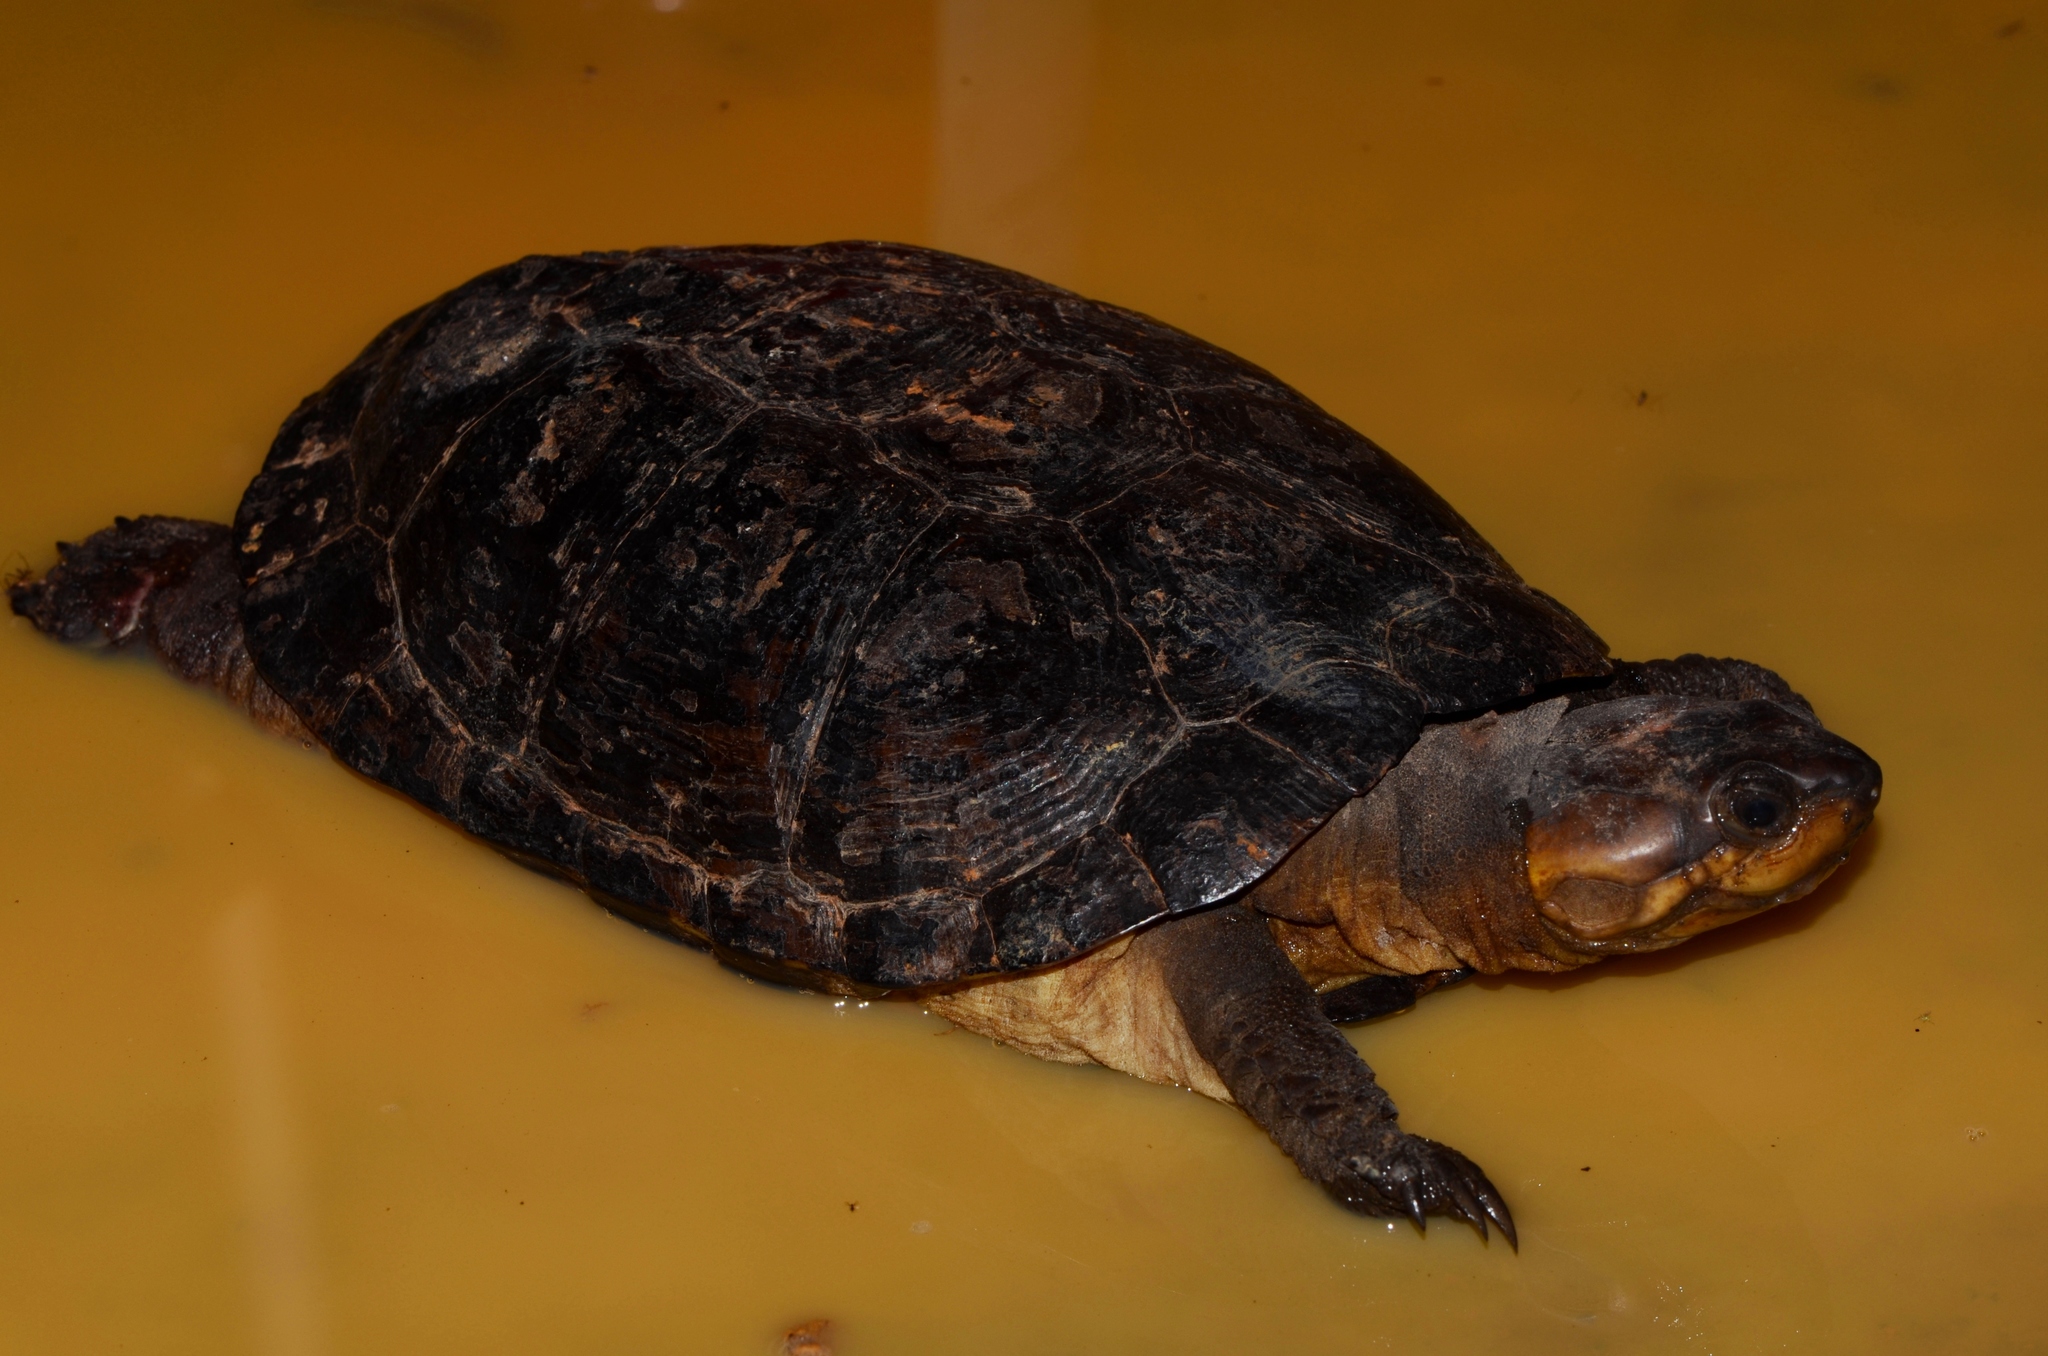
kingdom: Animalia
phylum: Chordata
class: Testudines
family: Pelomedusidae
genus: Pelusios
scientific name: Pelusios gabonensis
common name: African forest turtle
